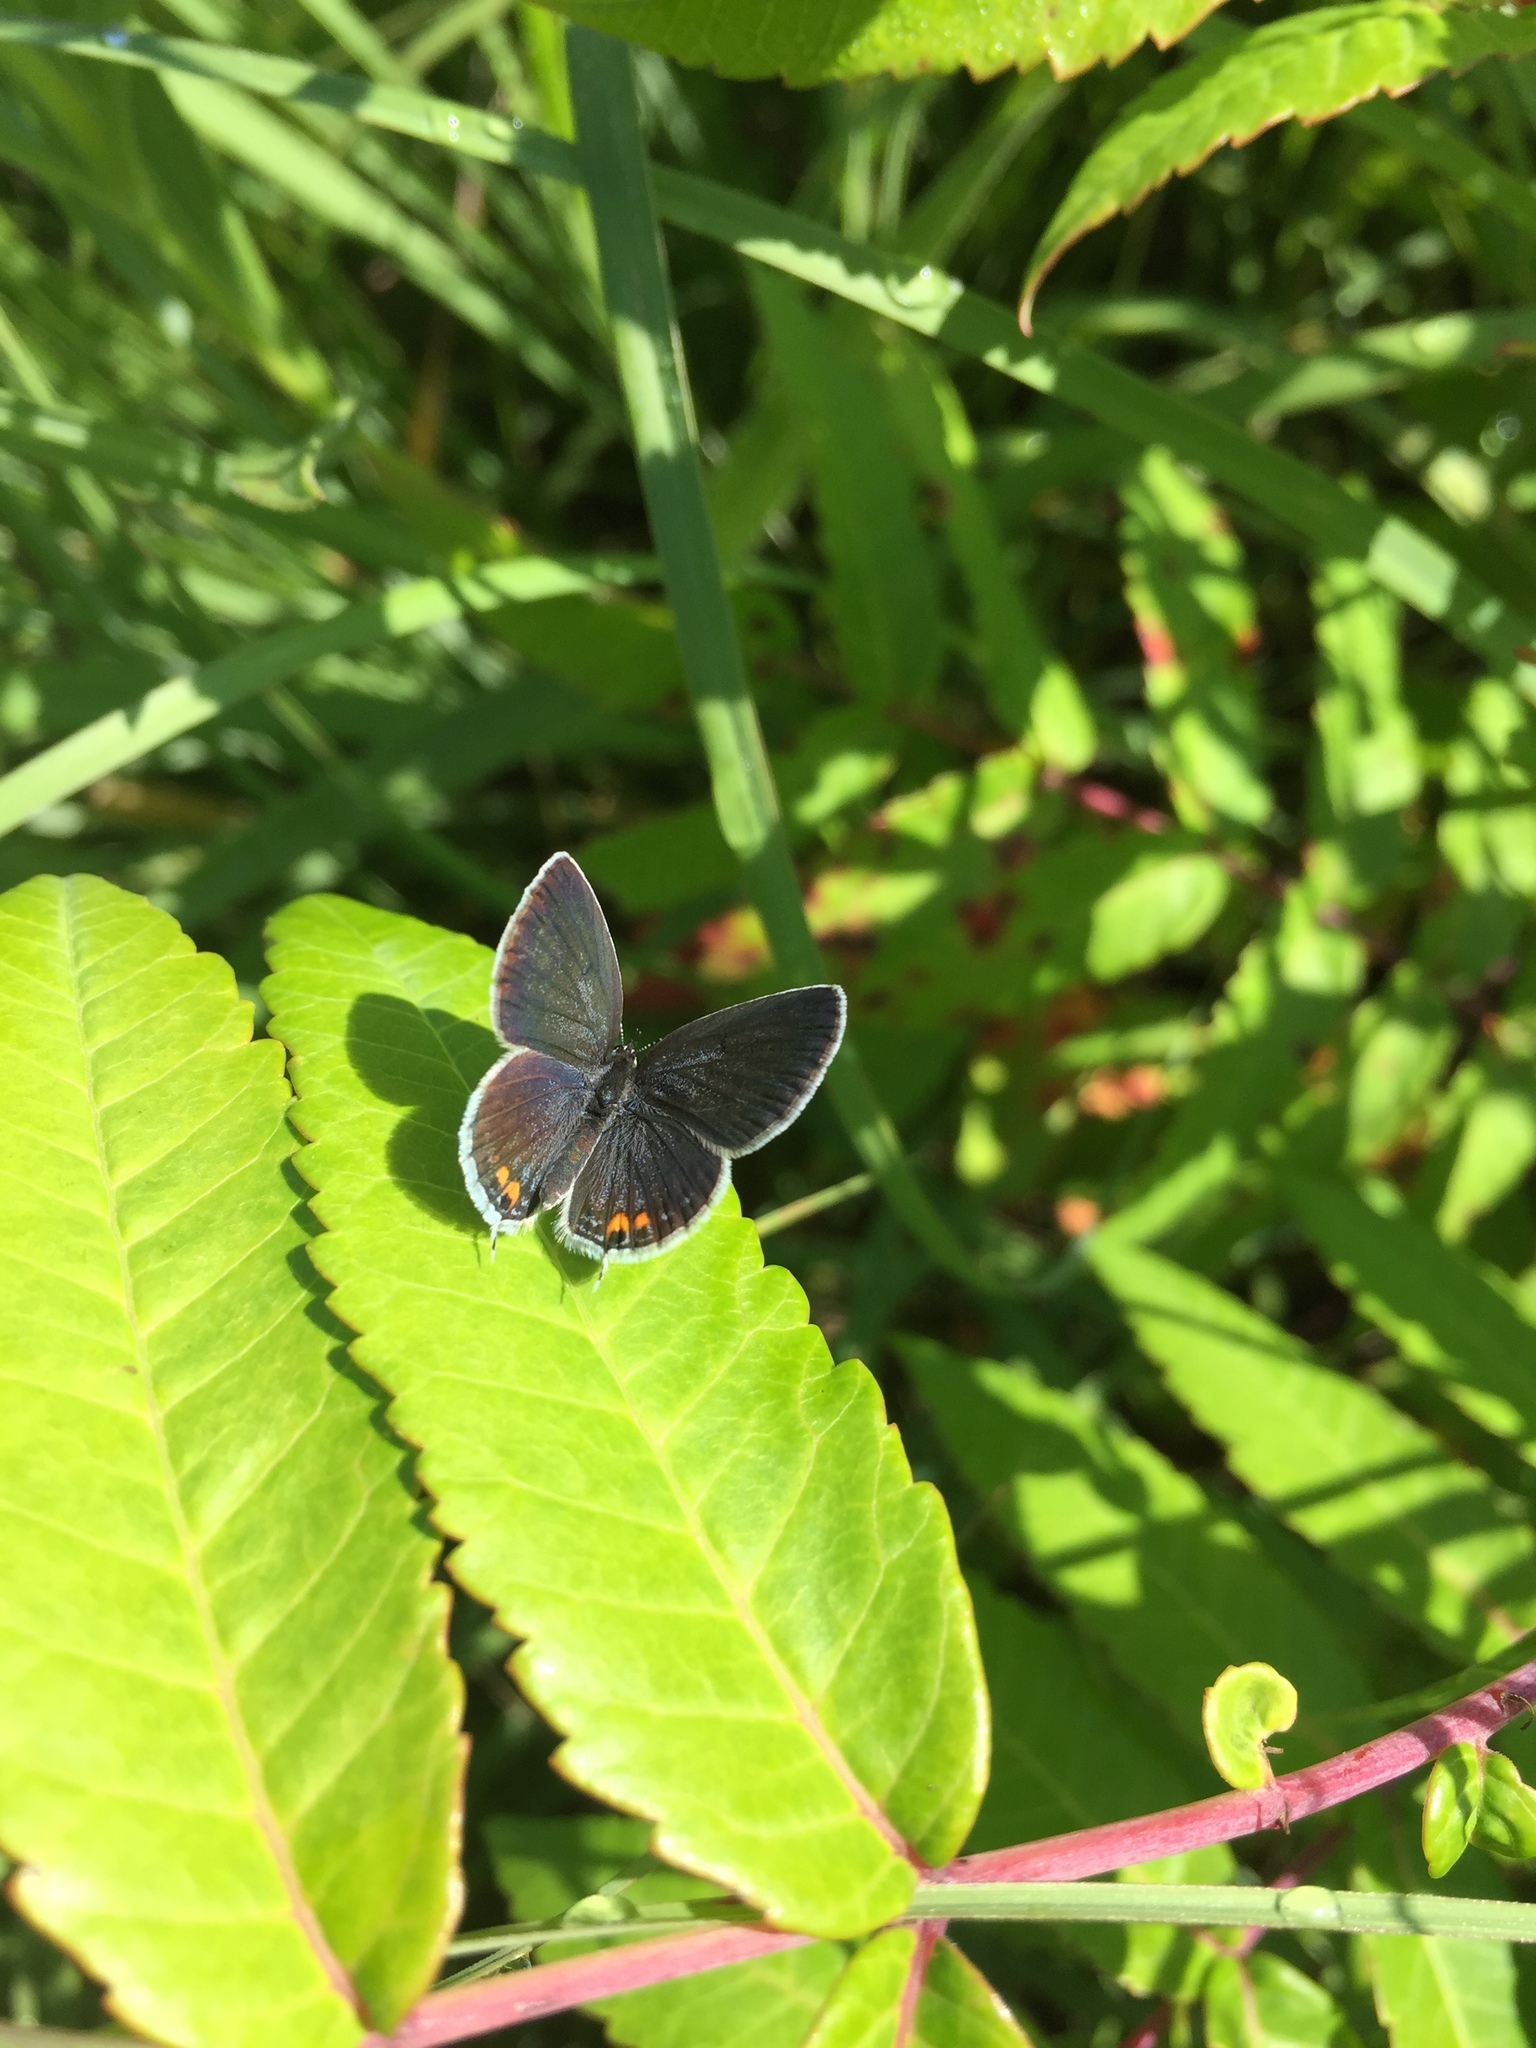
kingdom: Animalia
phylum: Arthropoda
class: Insecta
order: Lepidoptera
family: Lycaenidae
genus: Elkalyce
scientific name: Elkalyce comyntas
